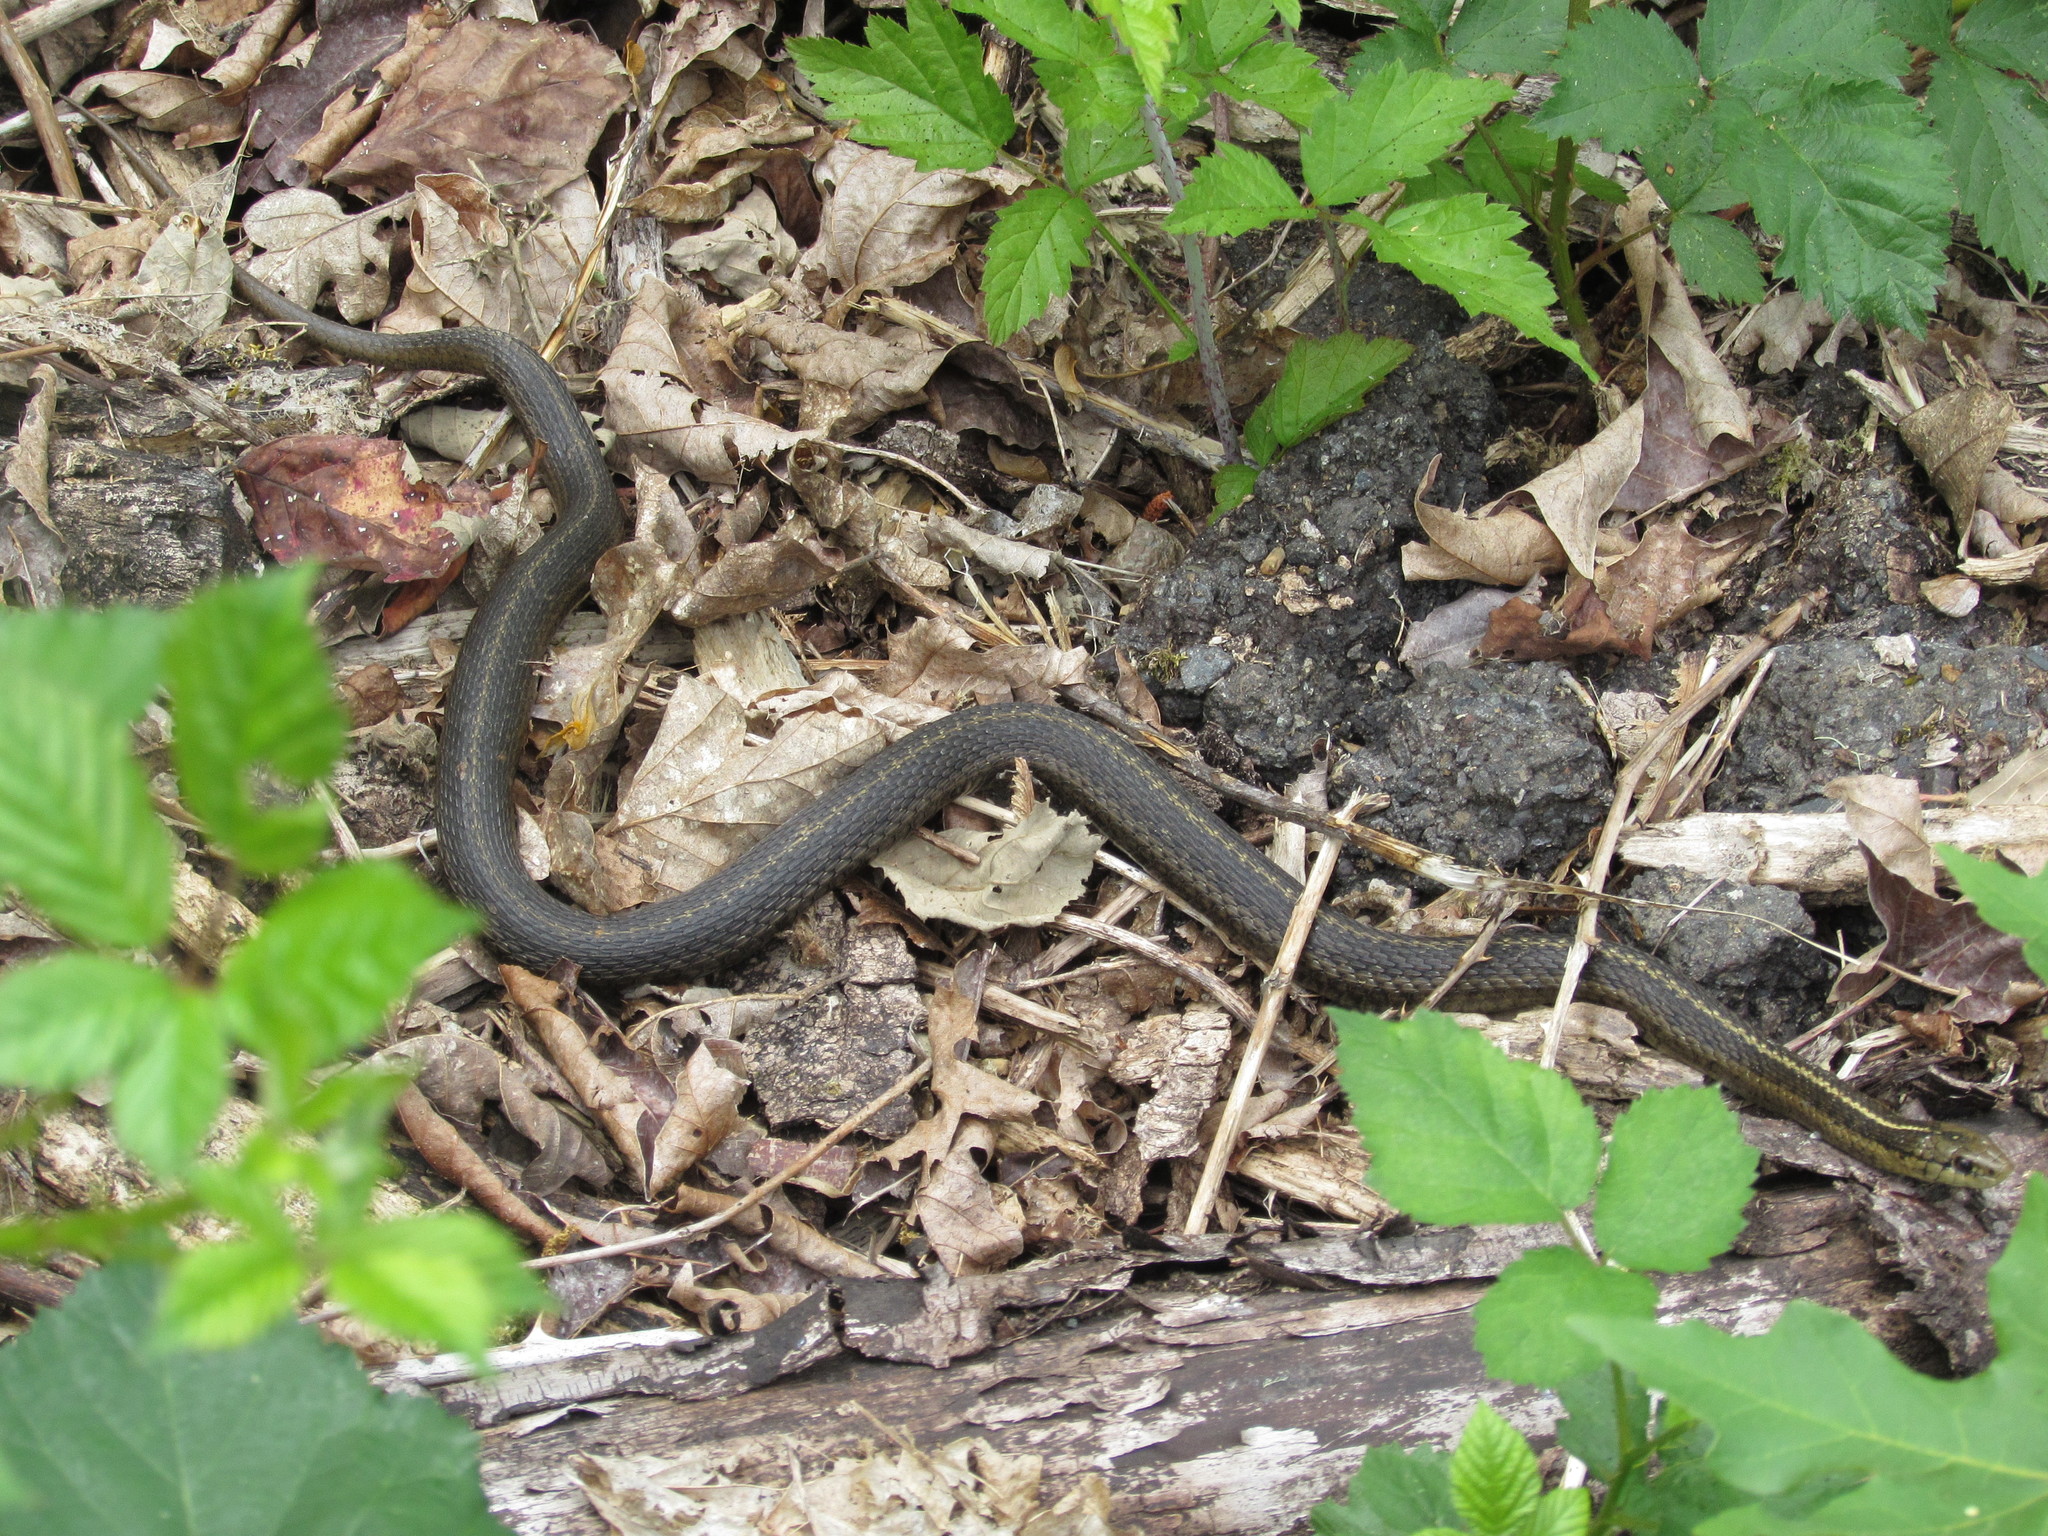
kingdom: Animalia
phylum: Chordata
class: Squamata
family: Colubridae
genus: Thamnophis
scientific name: Thamnophis ordinoides
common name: Northwestern garter snake
